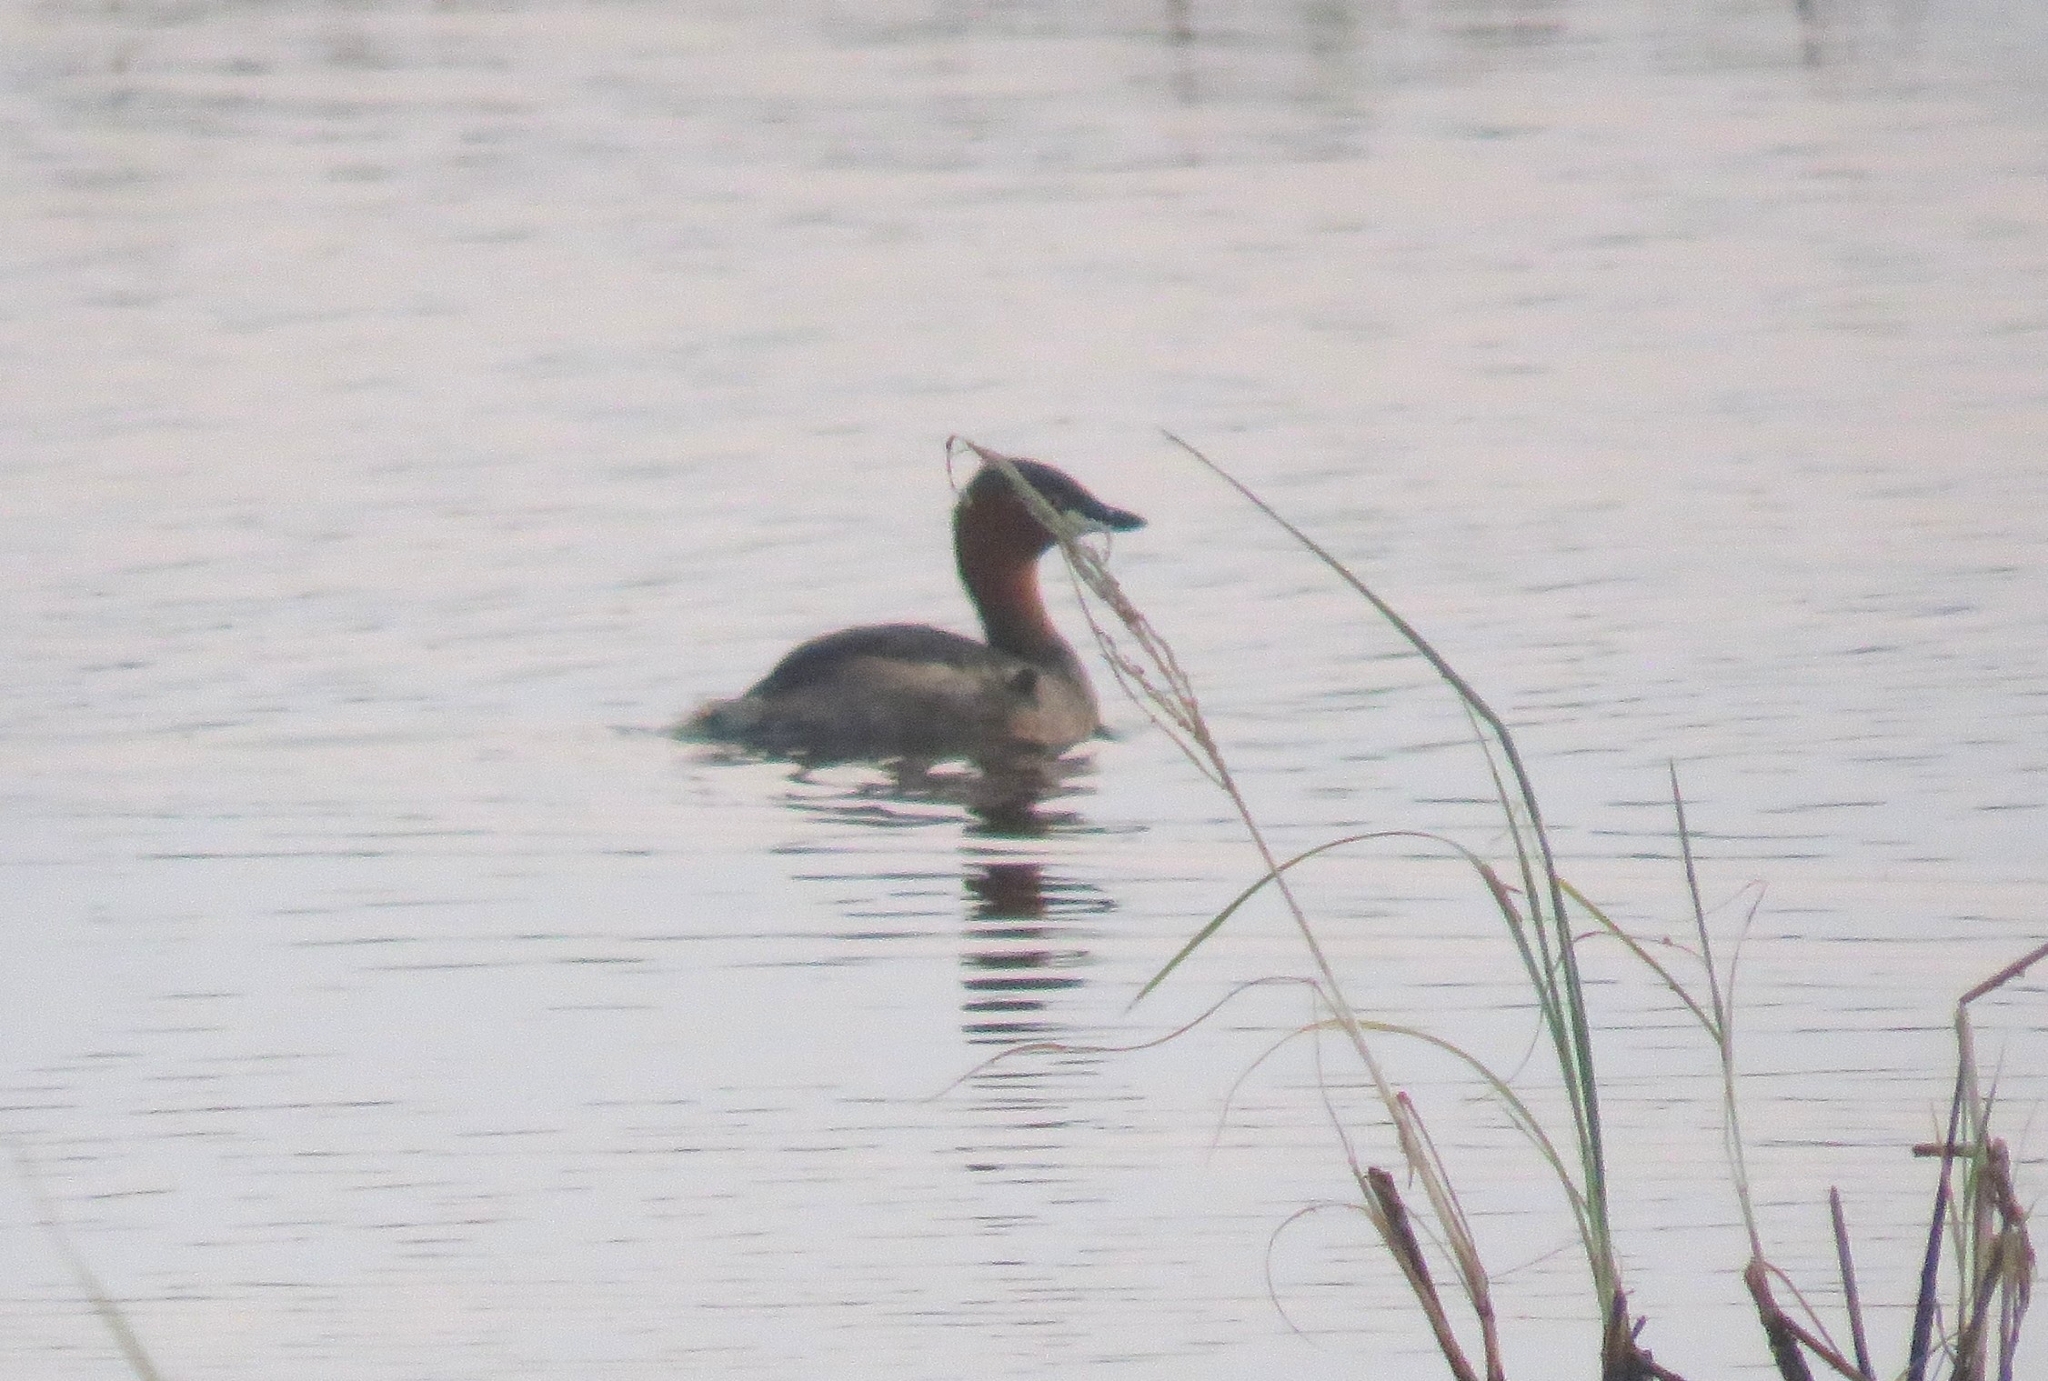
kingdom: Animalia
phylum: Chordata
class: Aves
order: Podicipediformes
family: Podicipedidae
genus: Tachybaptus
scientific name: Tachybaptus ruficollis
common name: Little grebe
